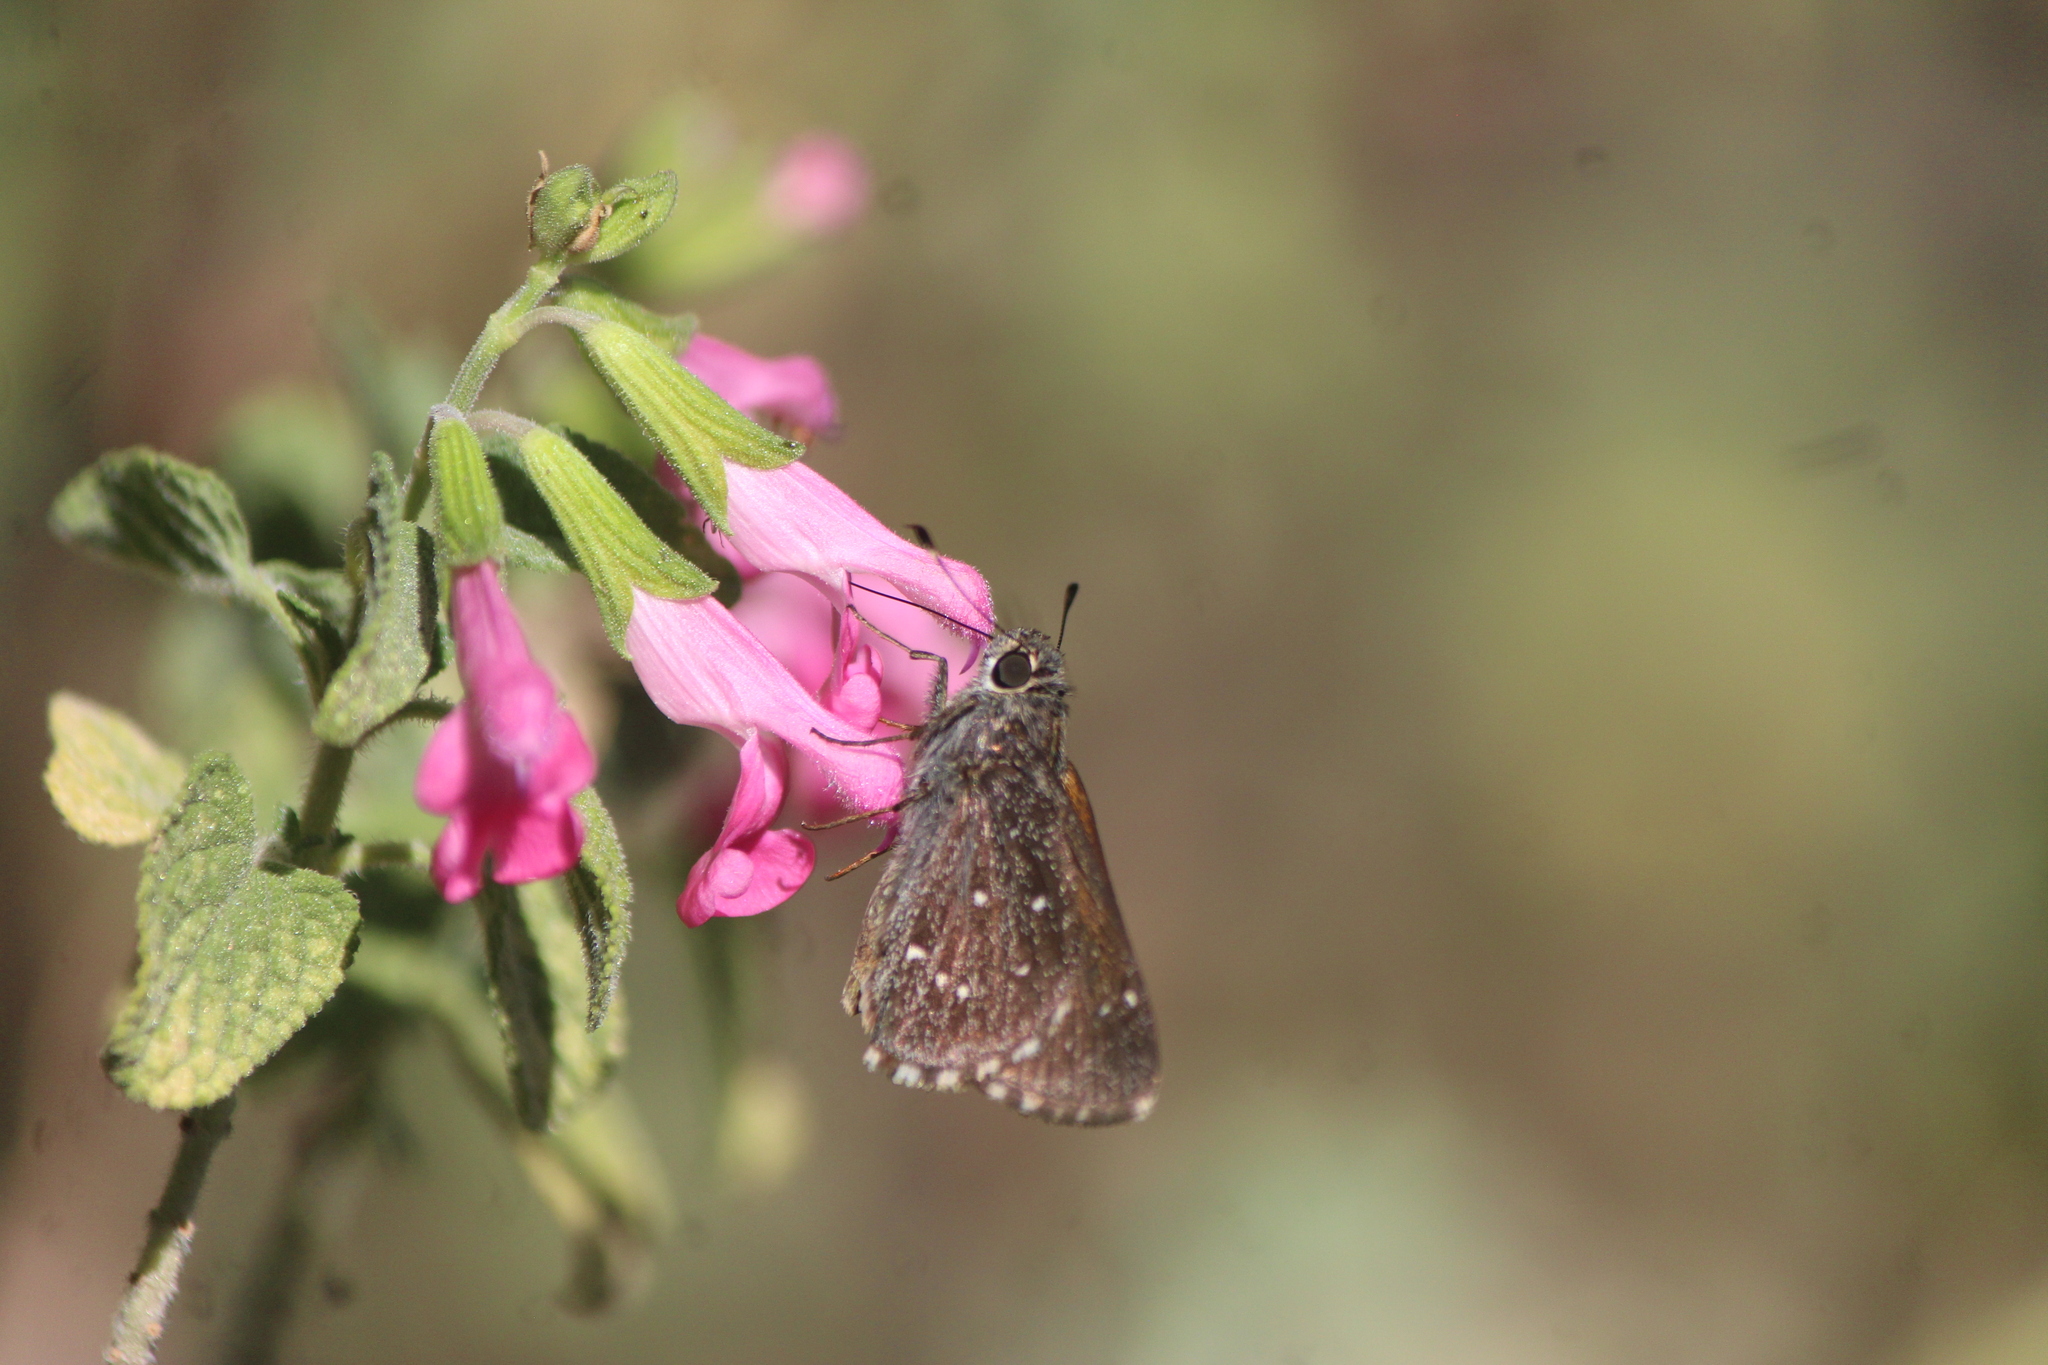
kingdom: Animalia
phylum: Arthropoda
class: Insecta
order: Lepidoptera
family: Hesperiidae
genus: Mastor
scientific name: Mastor exoteria
